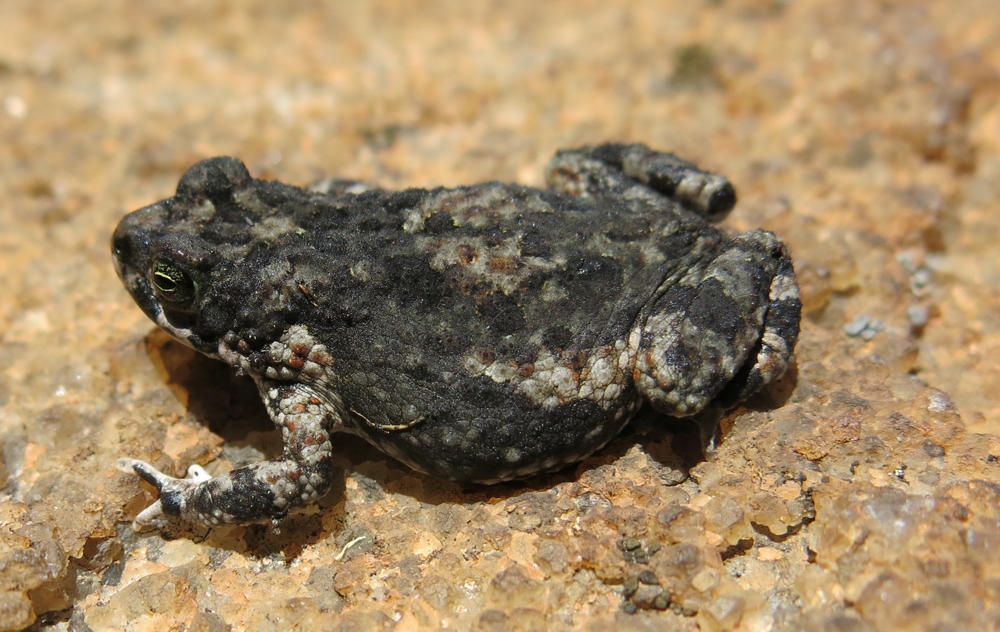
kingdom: Animalia
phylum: Chordata
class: Amphibia
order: Anura
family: Bufonidae
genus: Poyntonophrynus
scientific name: Poyntonophrynus fenoulheti
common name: Fenoulhet's toad
